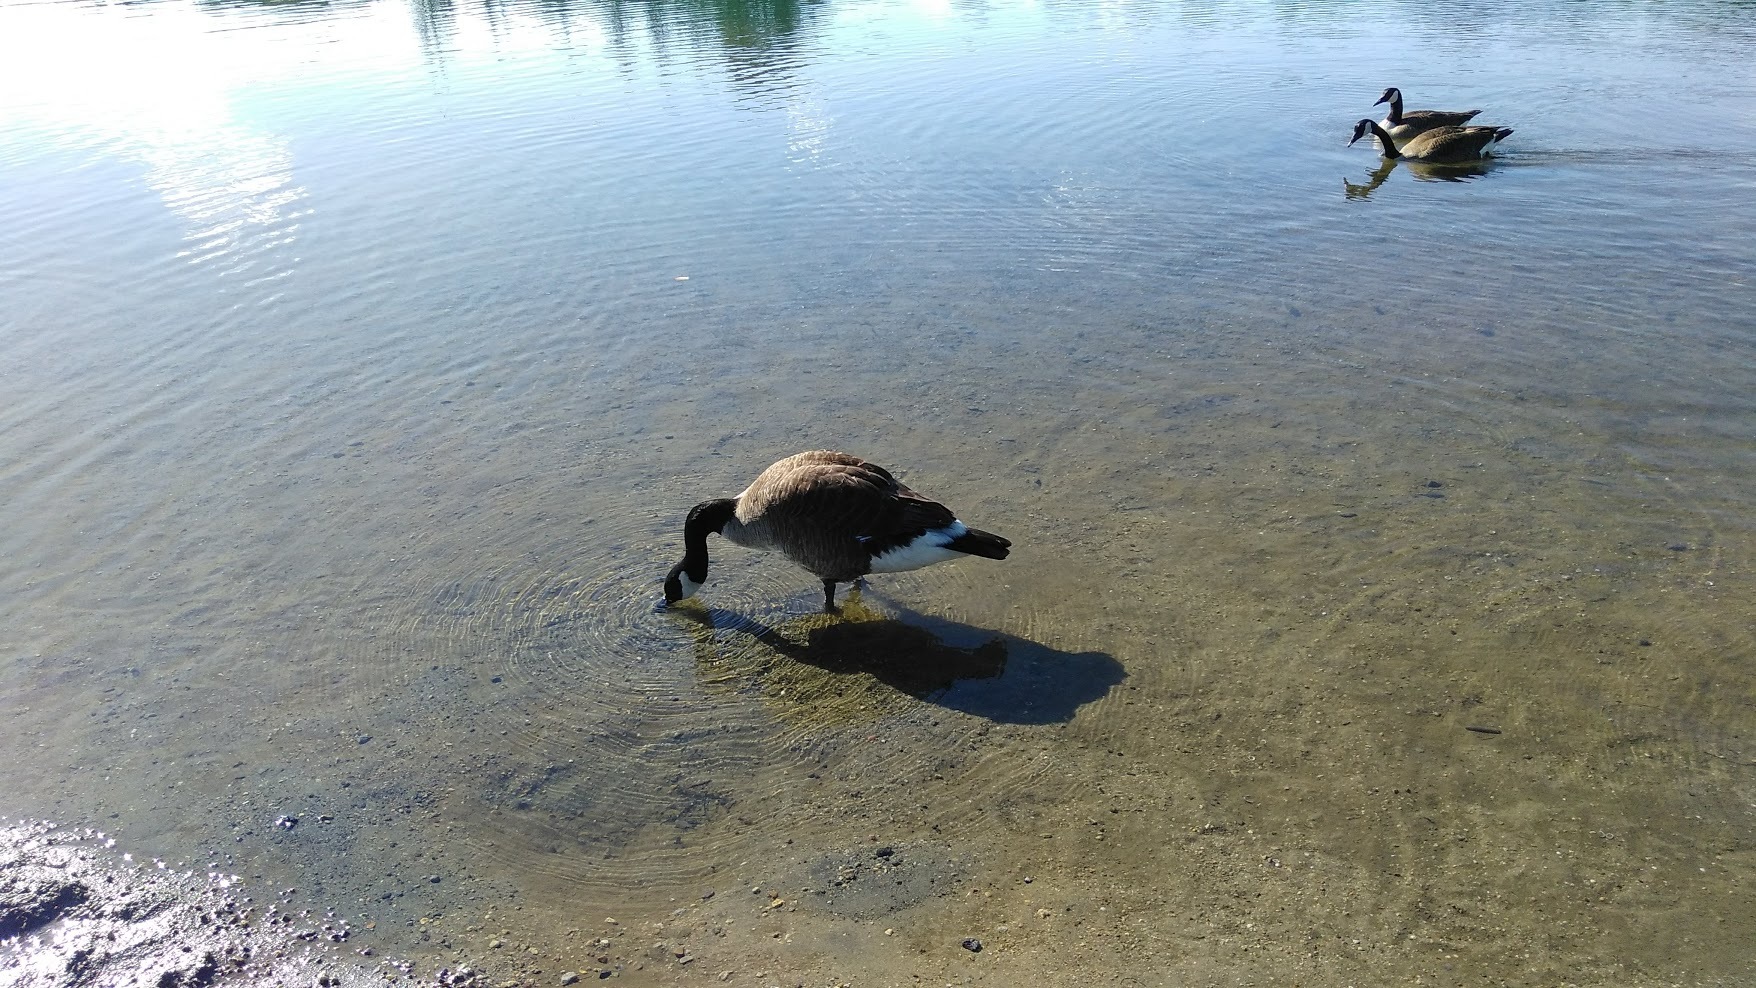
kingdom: Animalia
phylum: Chordata
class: Aves
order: Anseriformes
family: Anatidae
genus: Branta
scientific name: Branta canadensis
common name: Canada goose
